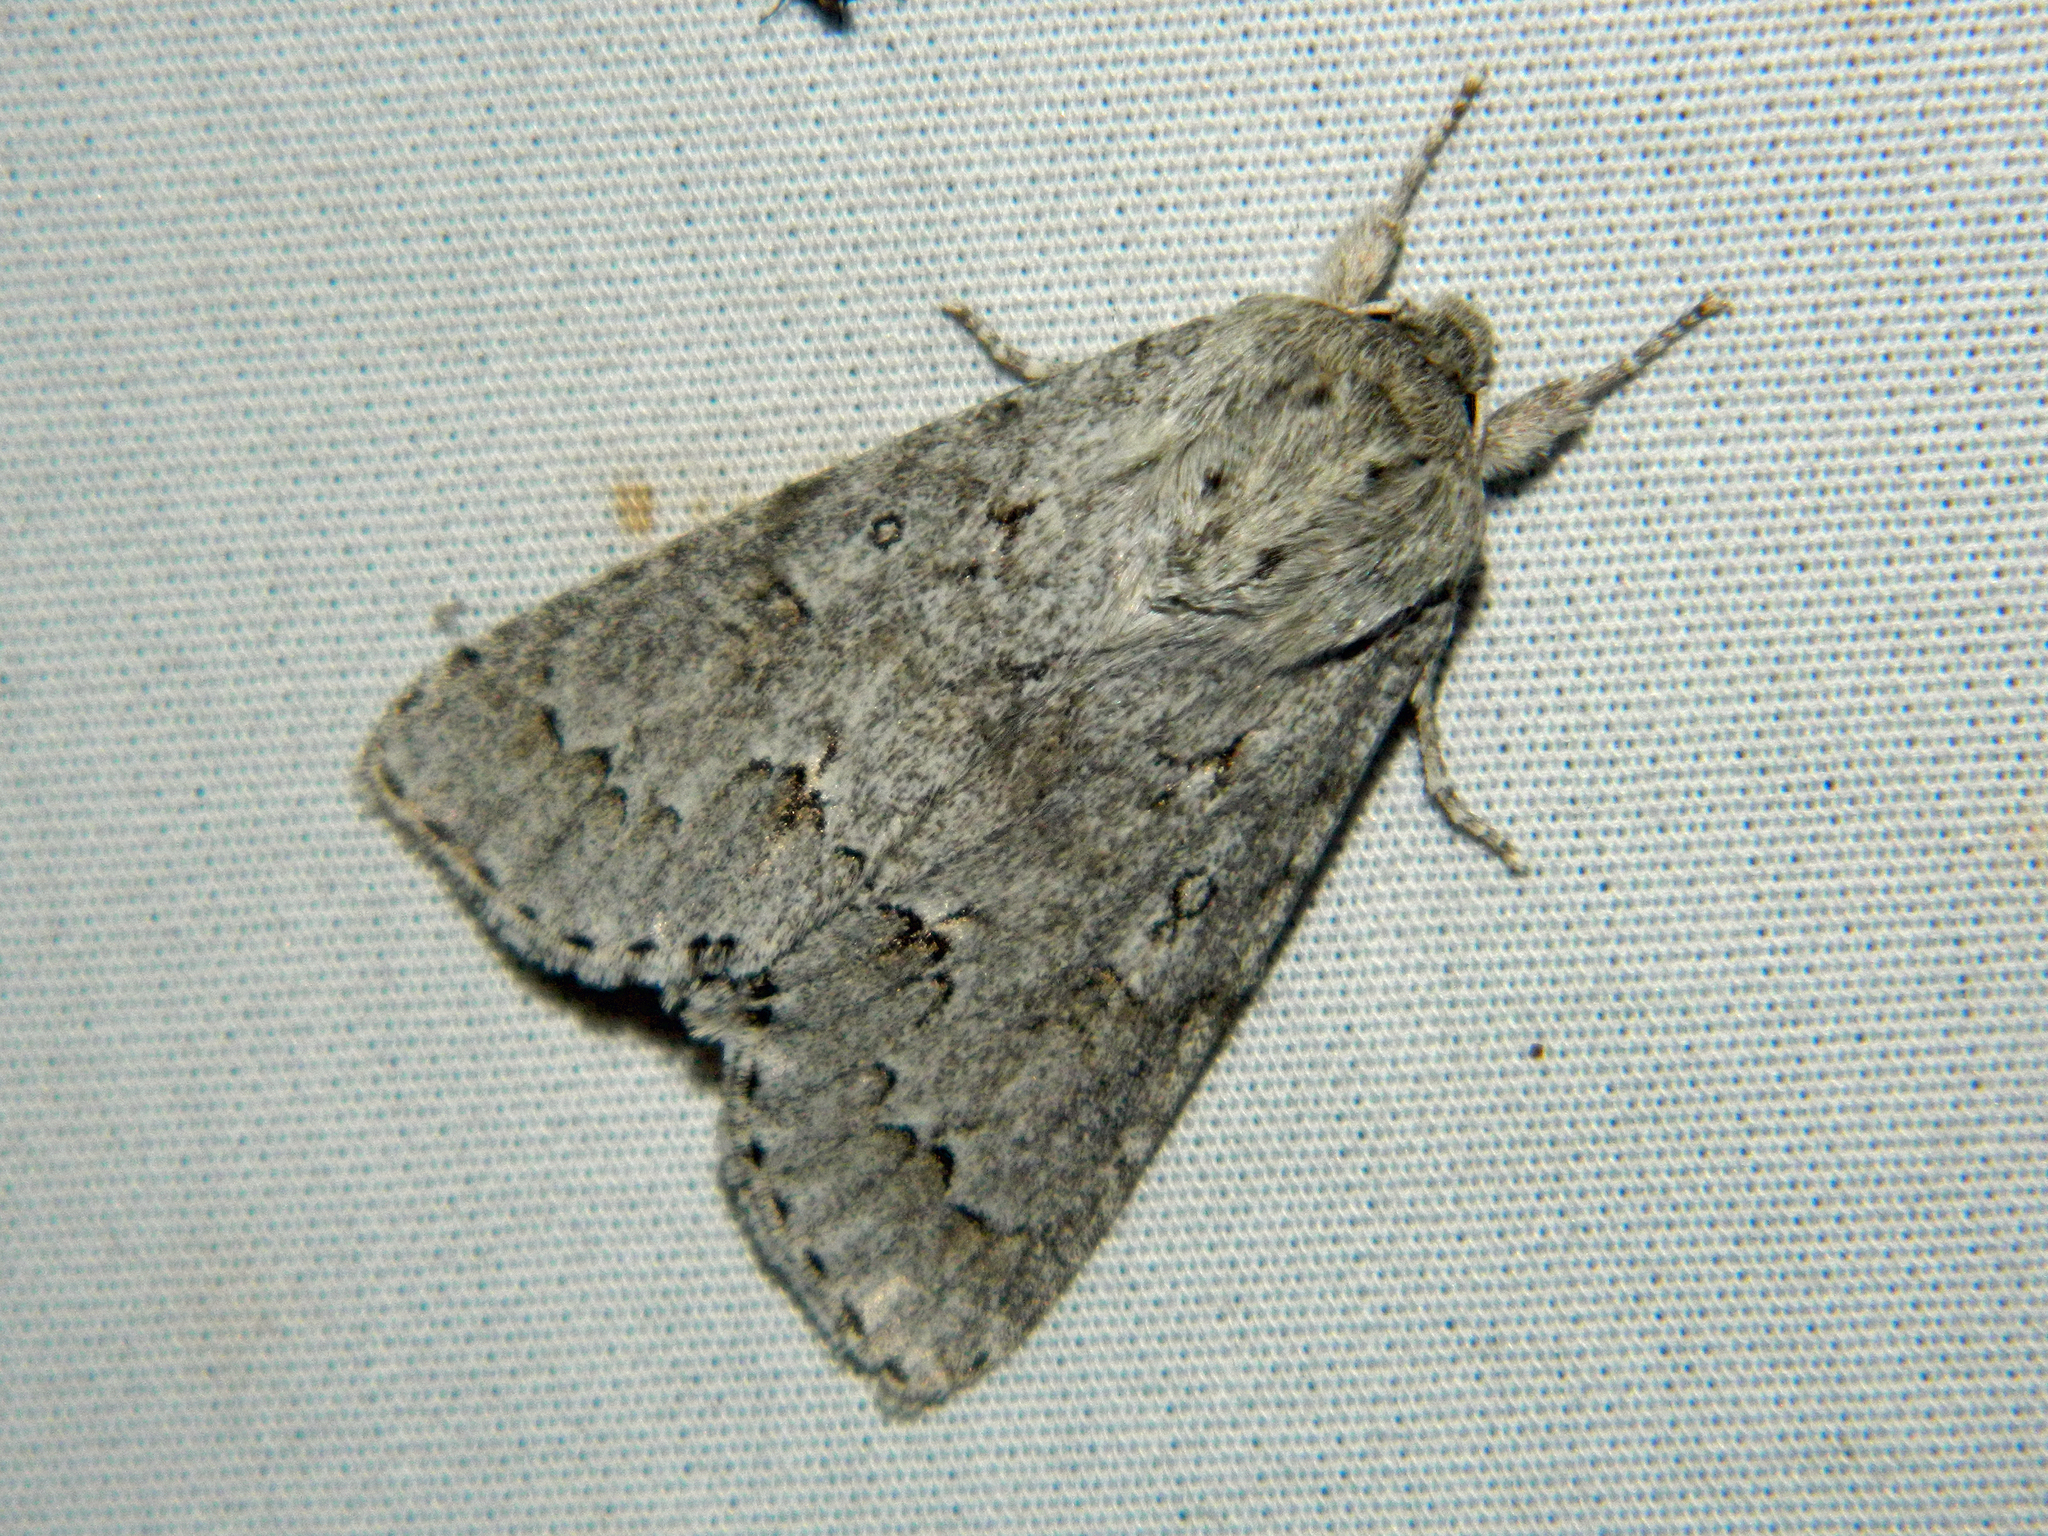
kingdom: Animalia
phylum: Arthropoda
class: Insecta
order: Lepidoptera
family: Noctuidae
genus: Acronicta
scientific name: Acronicta insita
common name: Large gray dagger
